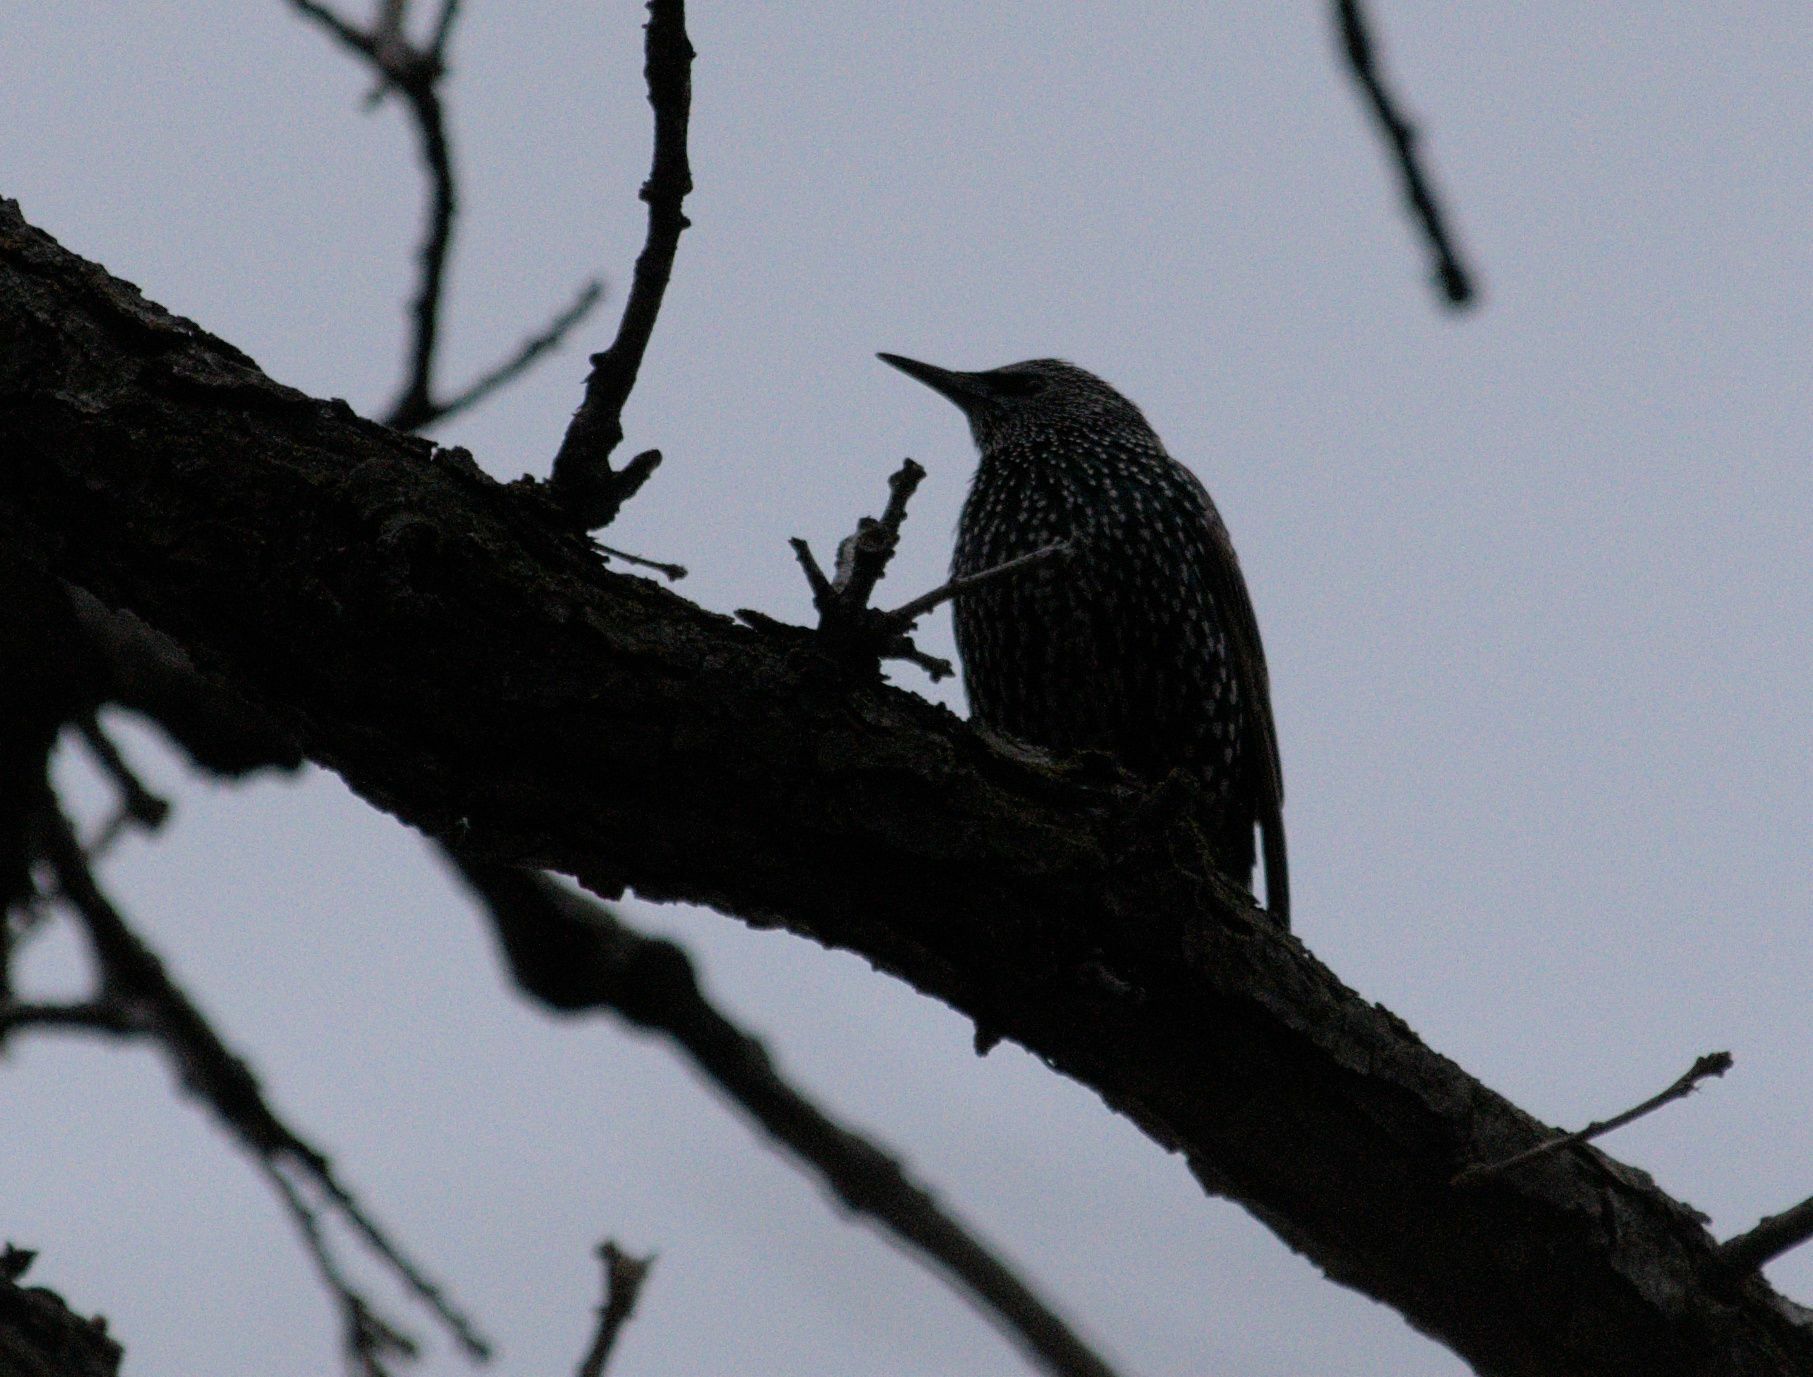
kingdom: Animalia
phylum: Chordata
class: Aves
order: Passeriformes
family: Sturnidae
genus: Sturnus
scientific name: Sturnus vulgaris
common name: Common starling
